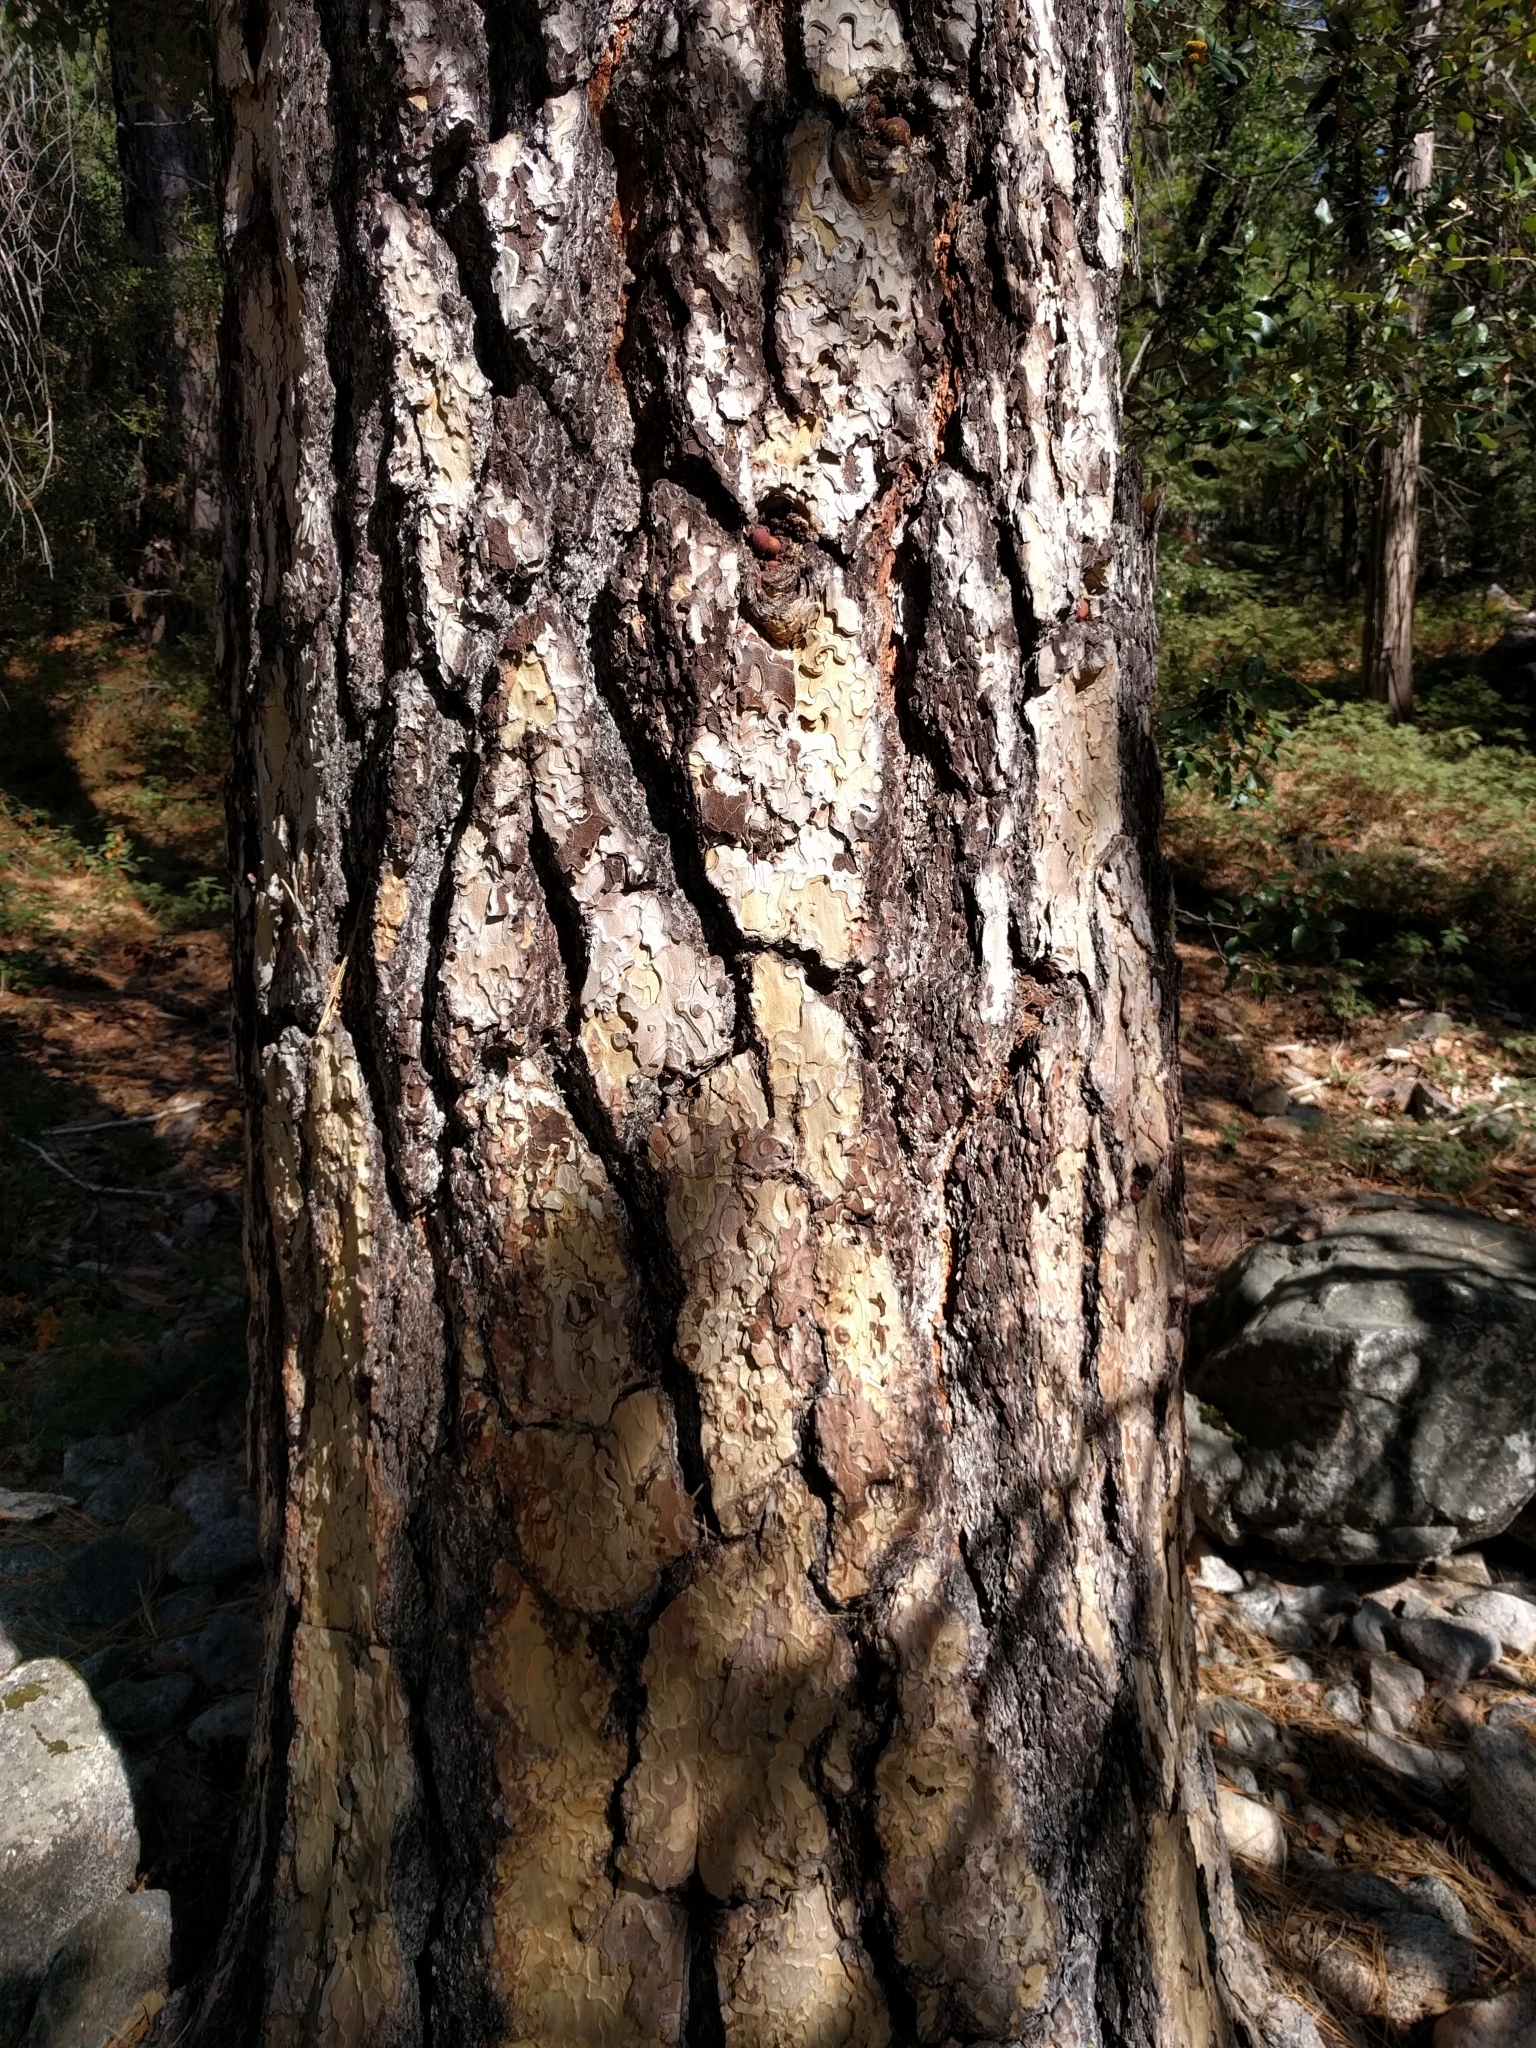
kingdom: Plantae
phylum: Tracheophyta
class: Pinopsida
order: Pinales
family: Pinaceae
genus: Pinus
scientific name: Pinus ponderosa
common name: Western yellow-pine
